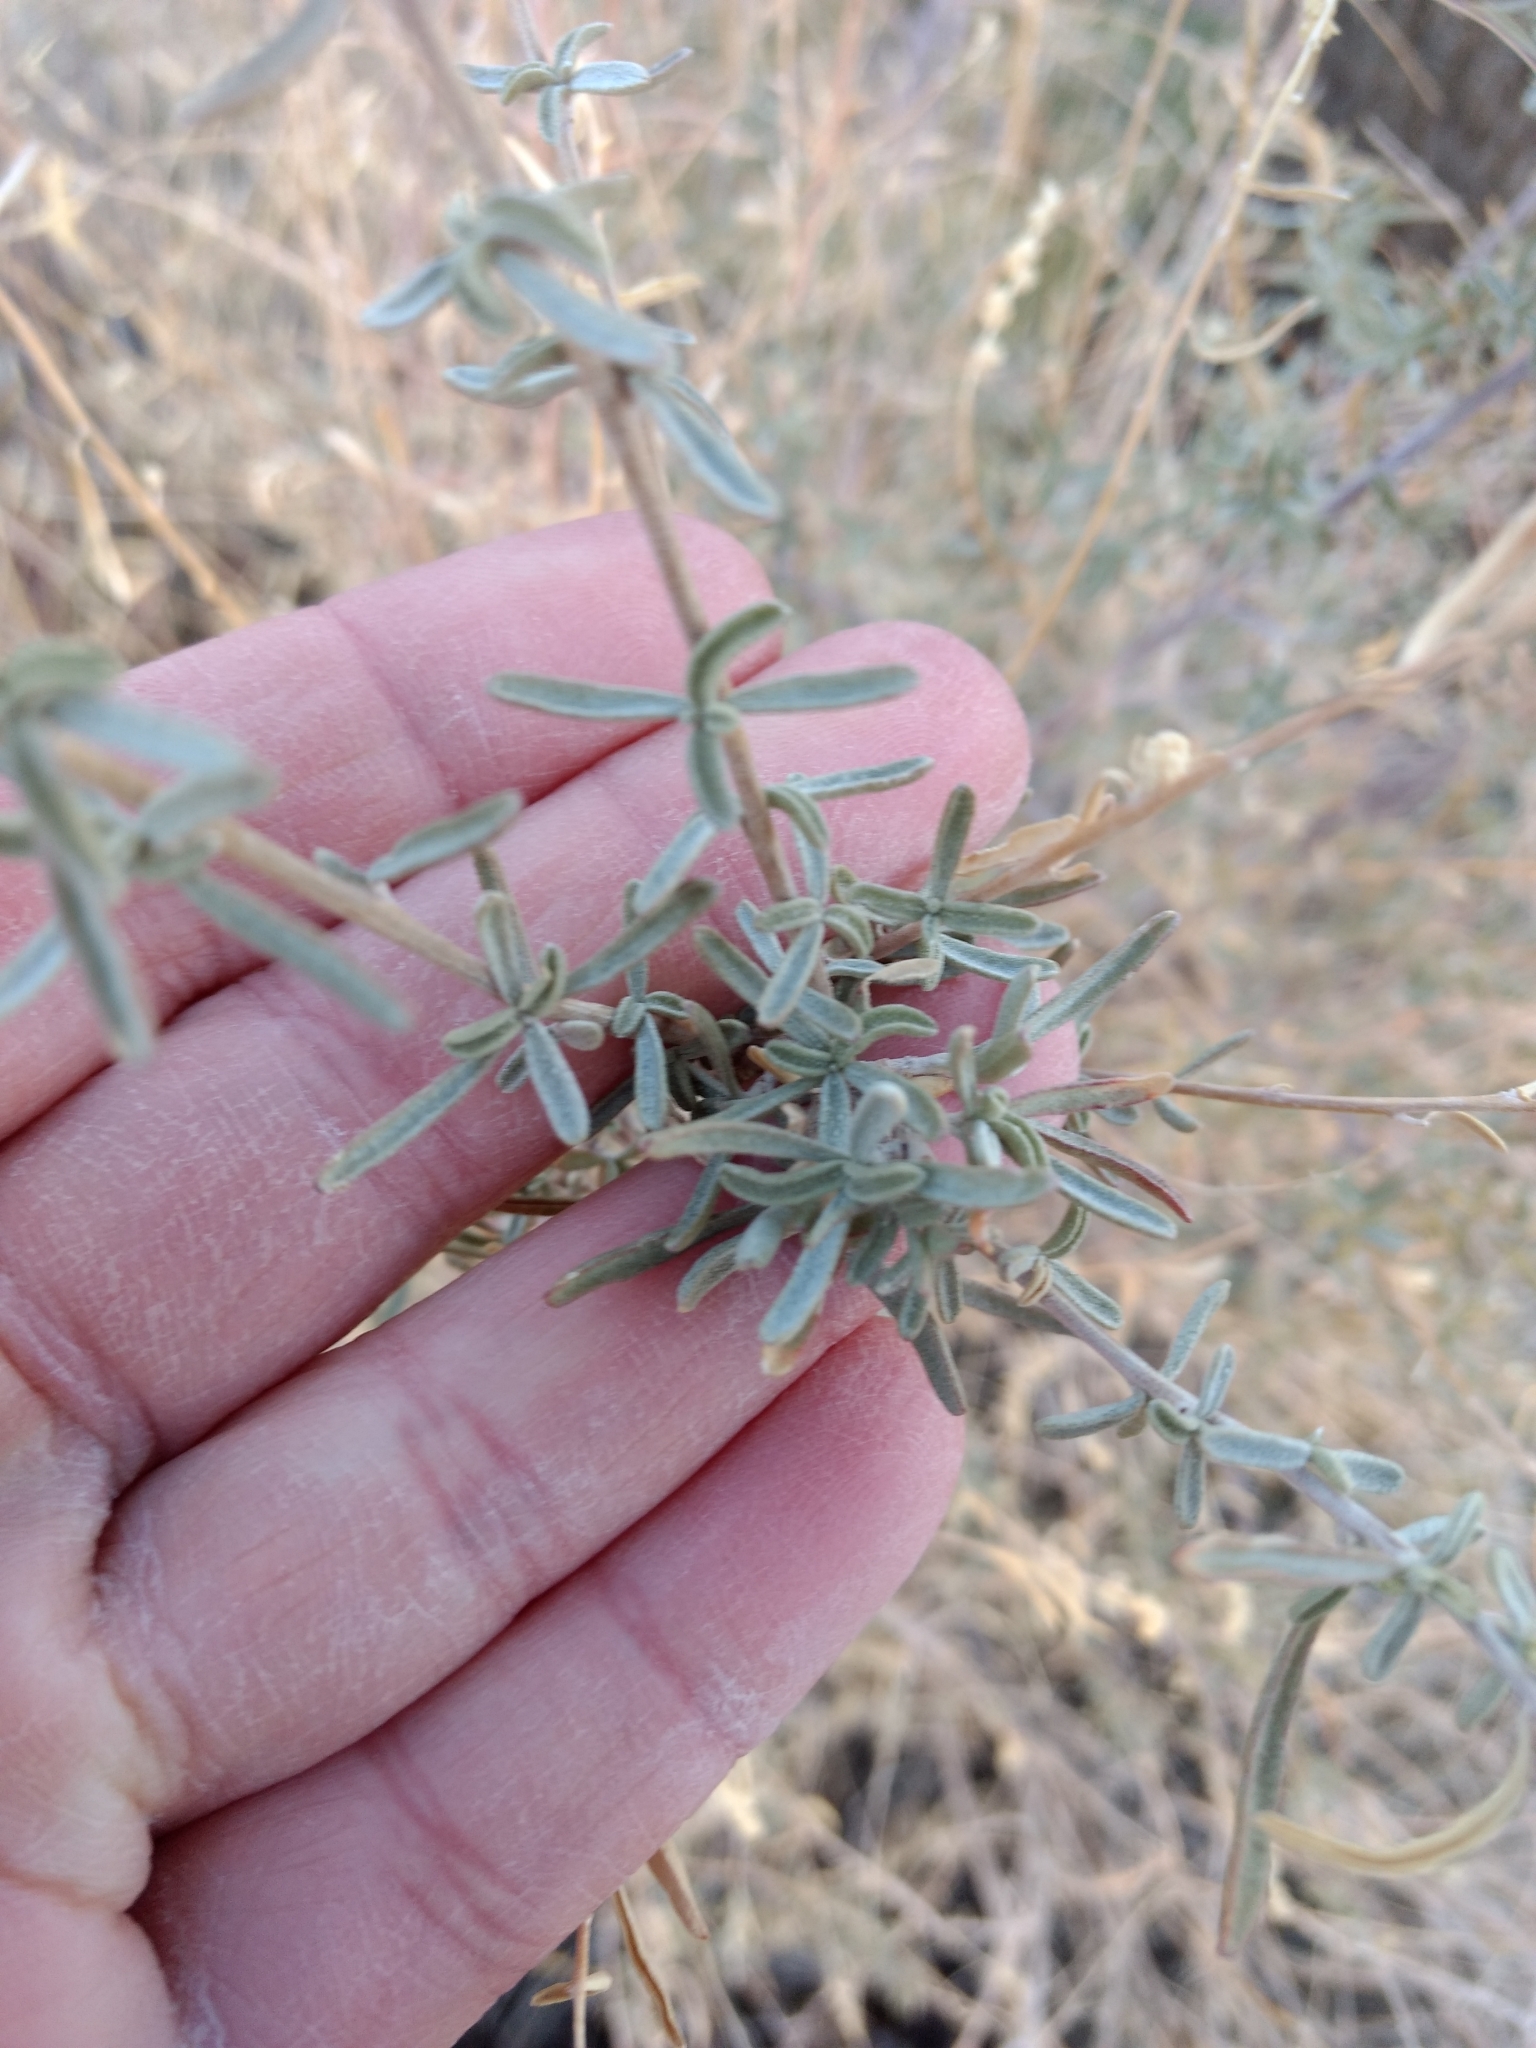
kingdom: Plantae
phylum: Tracheophyta
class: Magnoliopsida
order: Caryophyllales
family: Amaranthaceae
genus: Atriplex
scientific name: Atriplex canescens
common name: Four-wing saltbush
